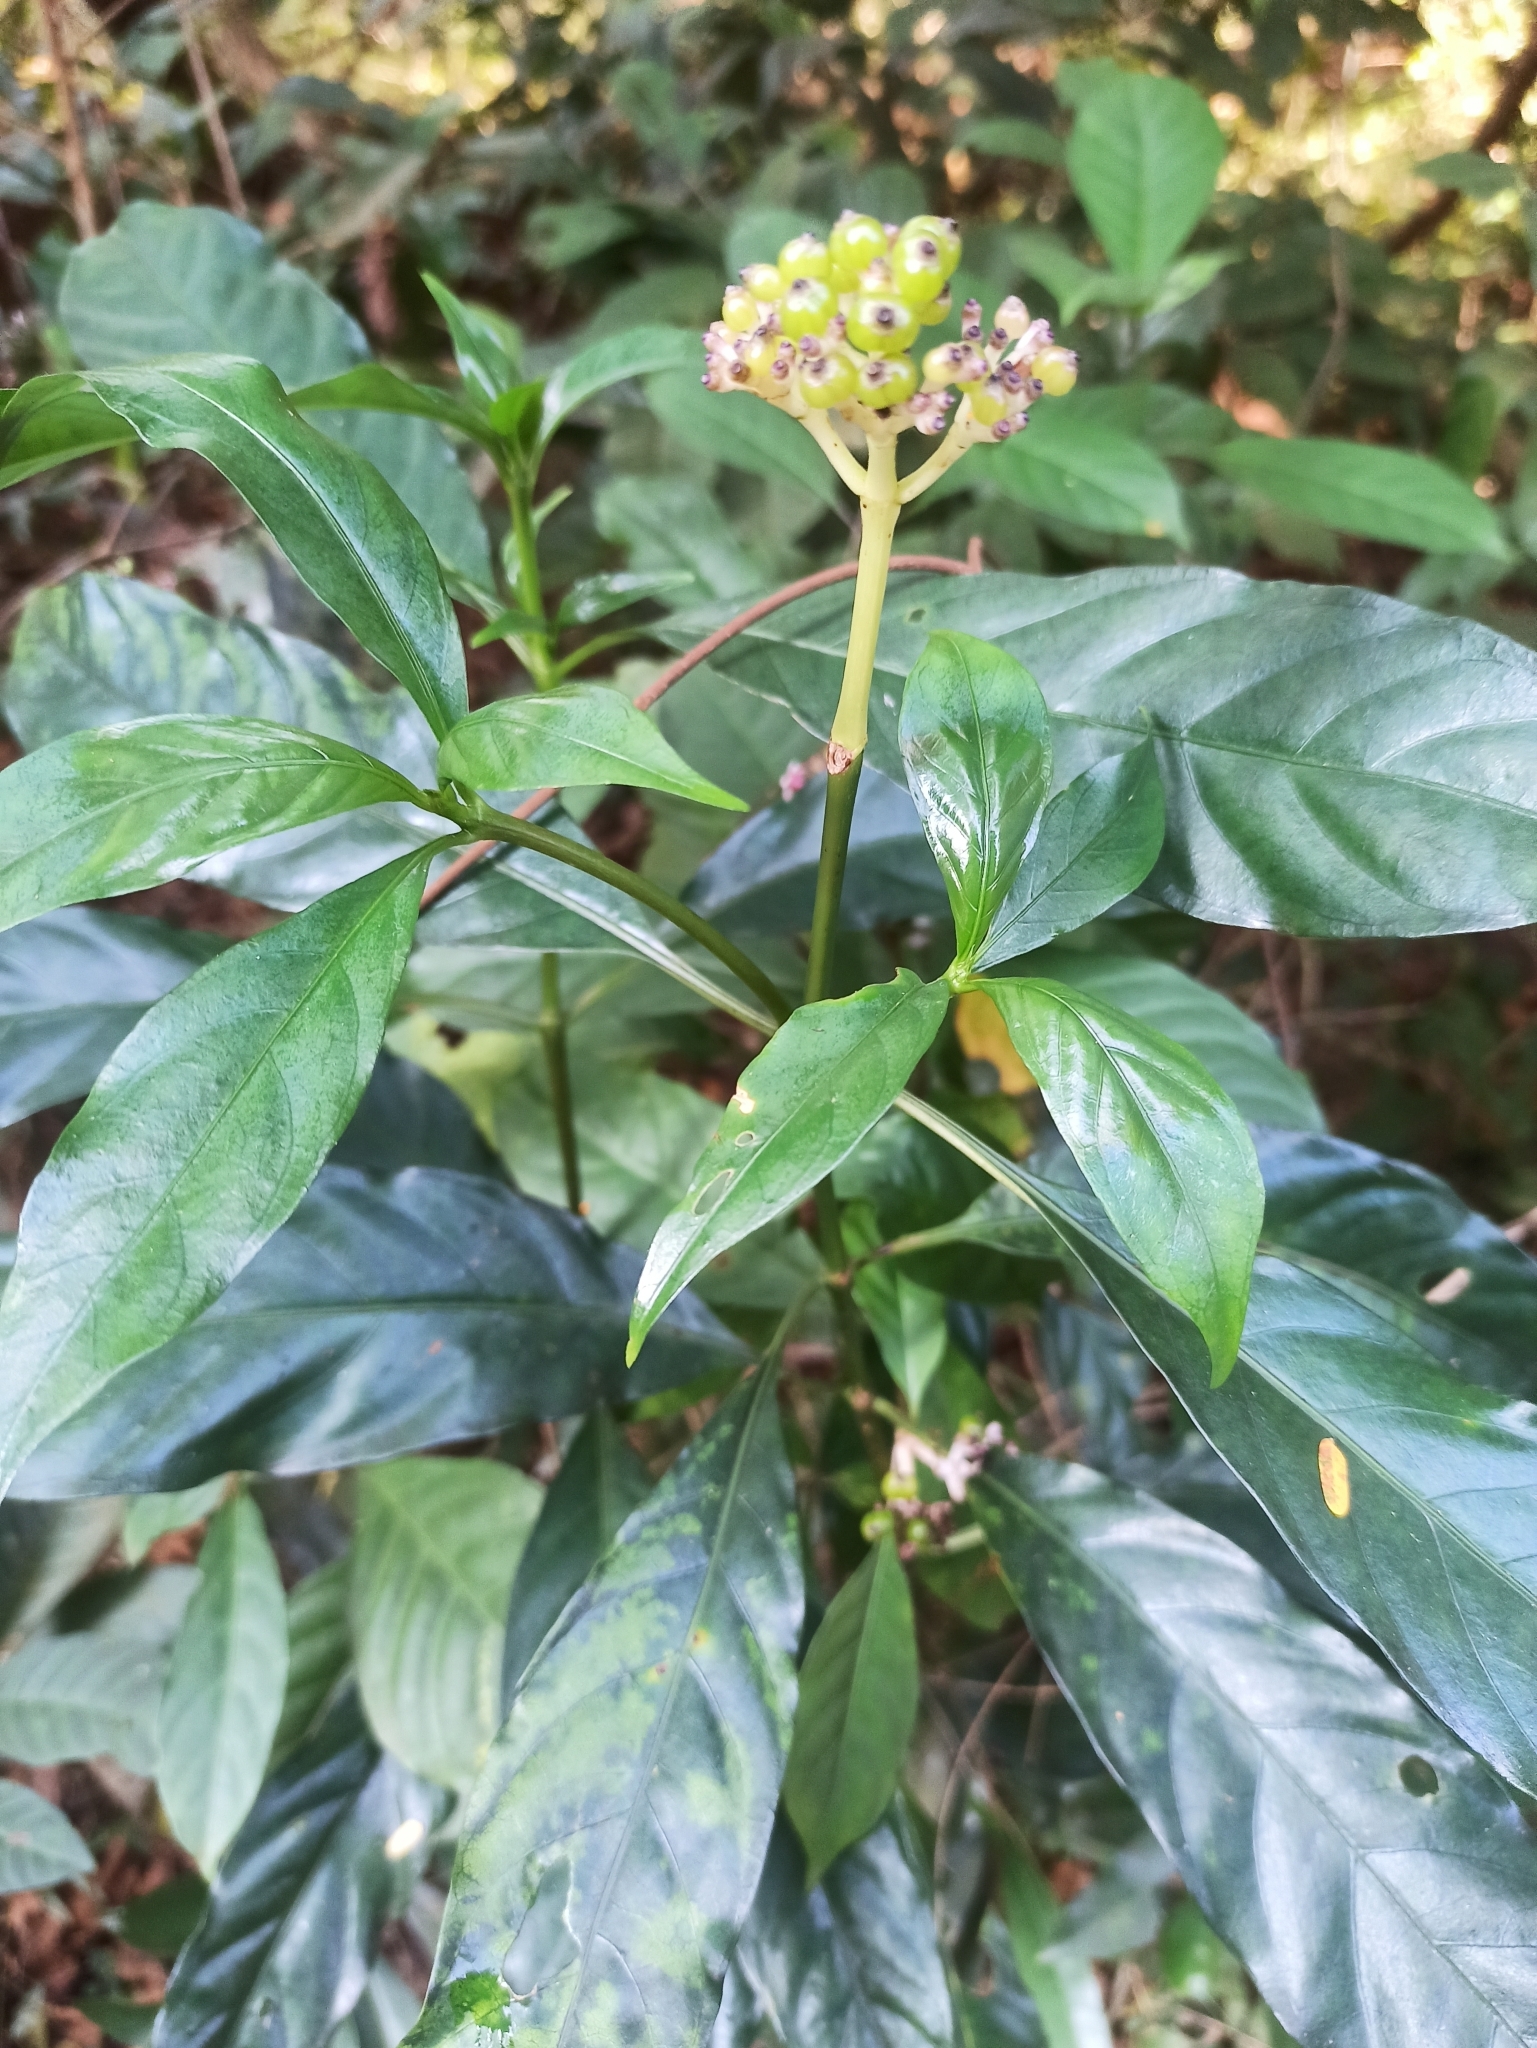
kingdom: Plantae
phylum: Tracheophyta
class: Magnoliopsida
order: Gentianales
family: Rubiaceae
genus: Chassalia
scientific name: Chassalia curviflora
